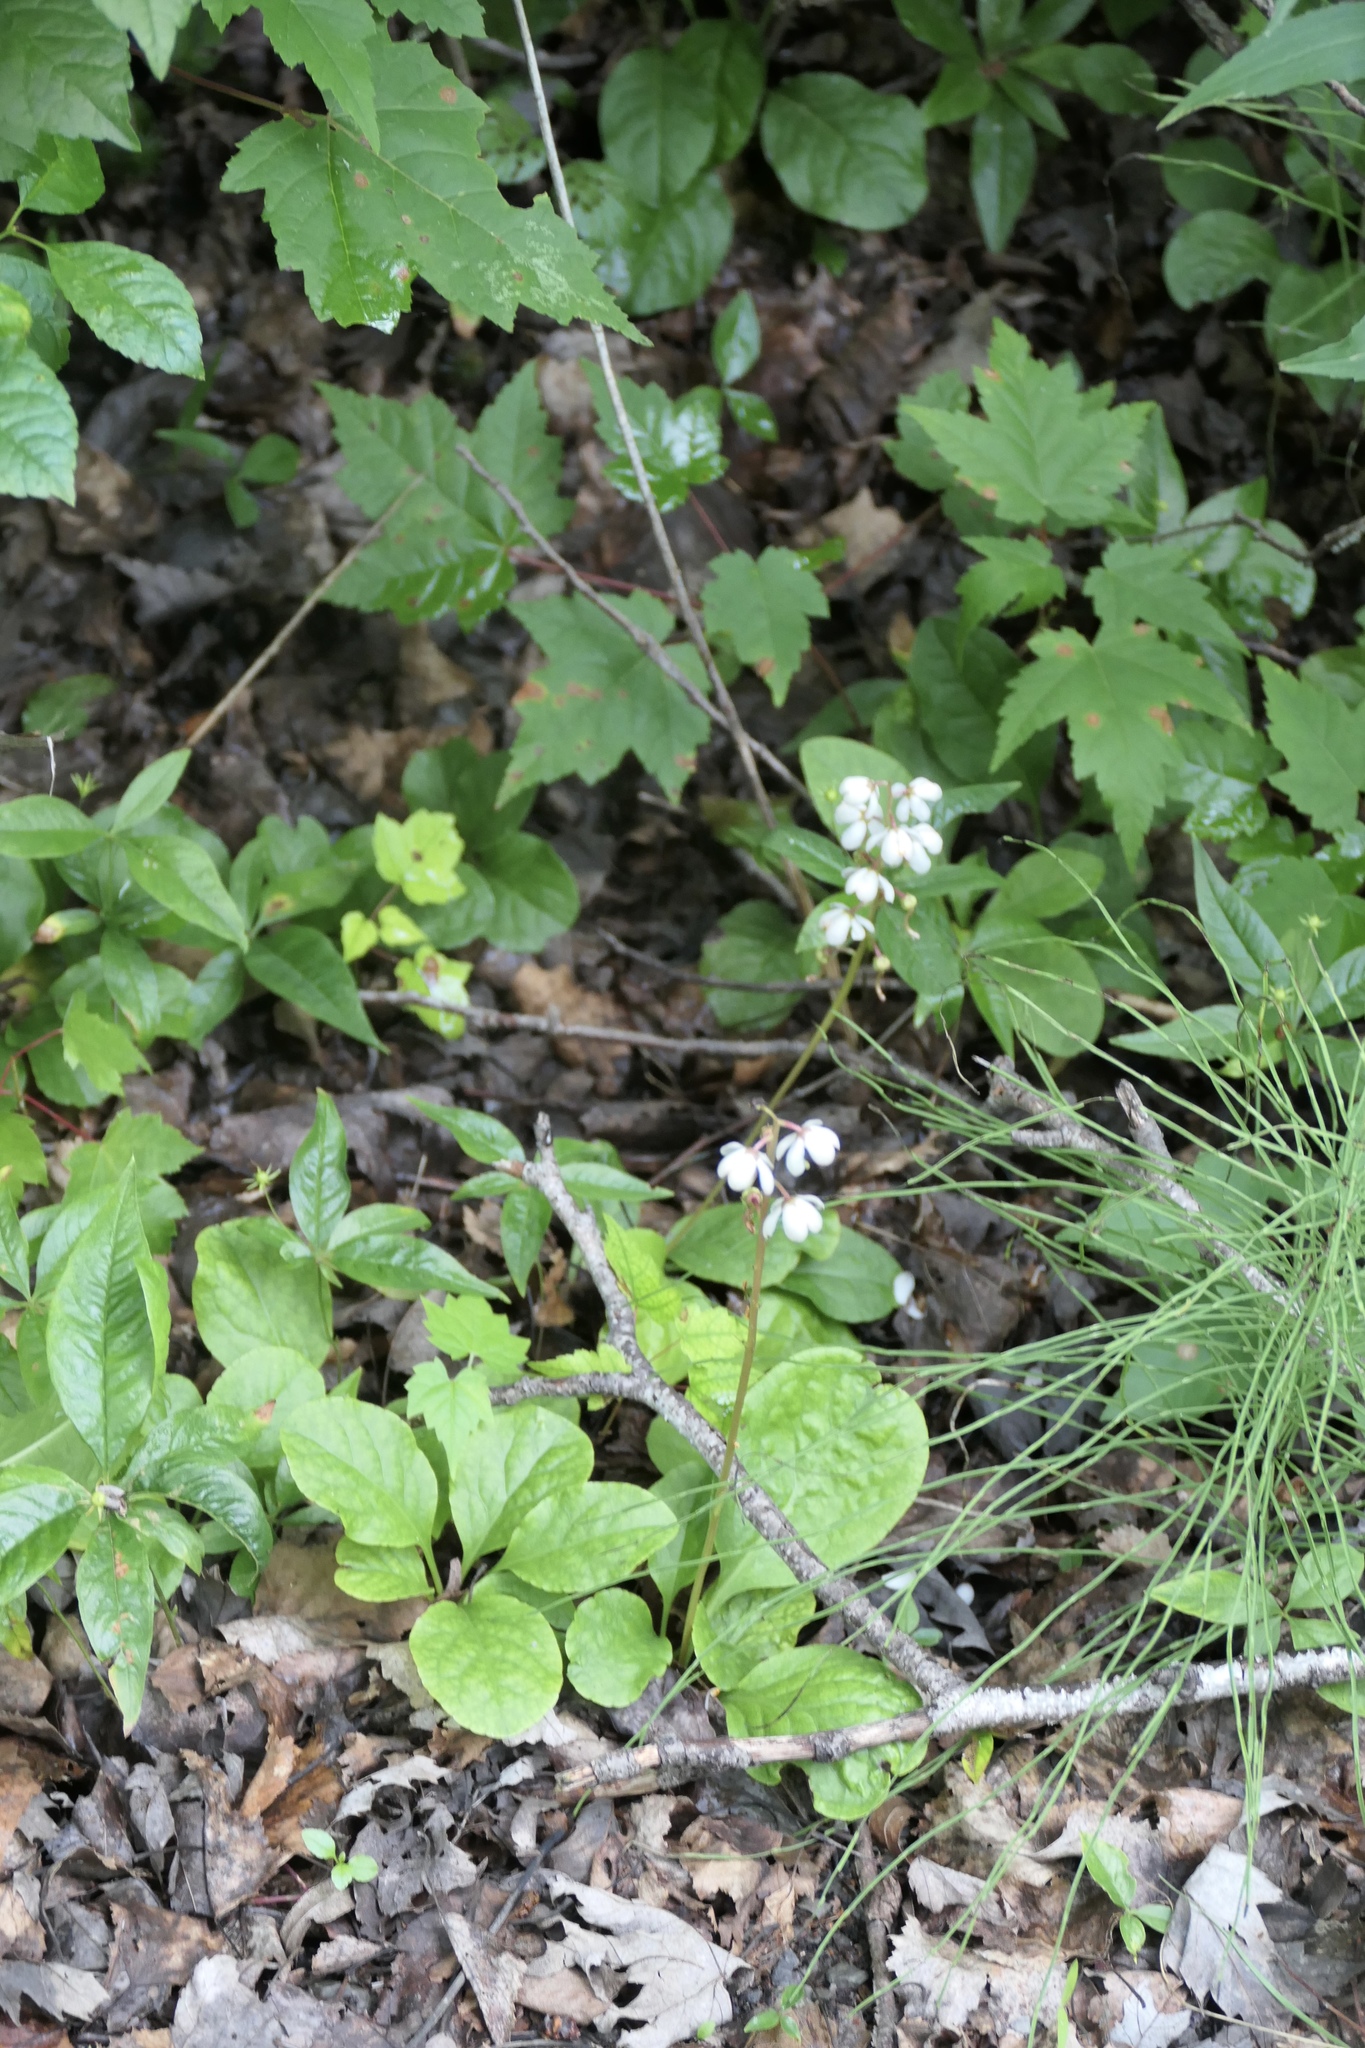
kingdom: Plantae
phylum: Tracheophyta
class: Magnoliopsida
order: Ericales
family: Ericaceae
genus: Pyrola
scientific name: Pyrola elliptica
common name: Shinleaf
